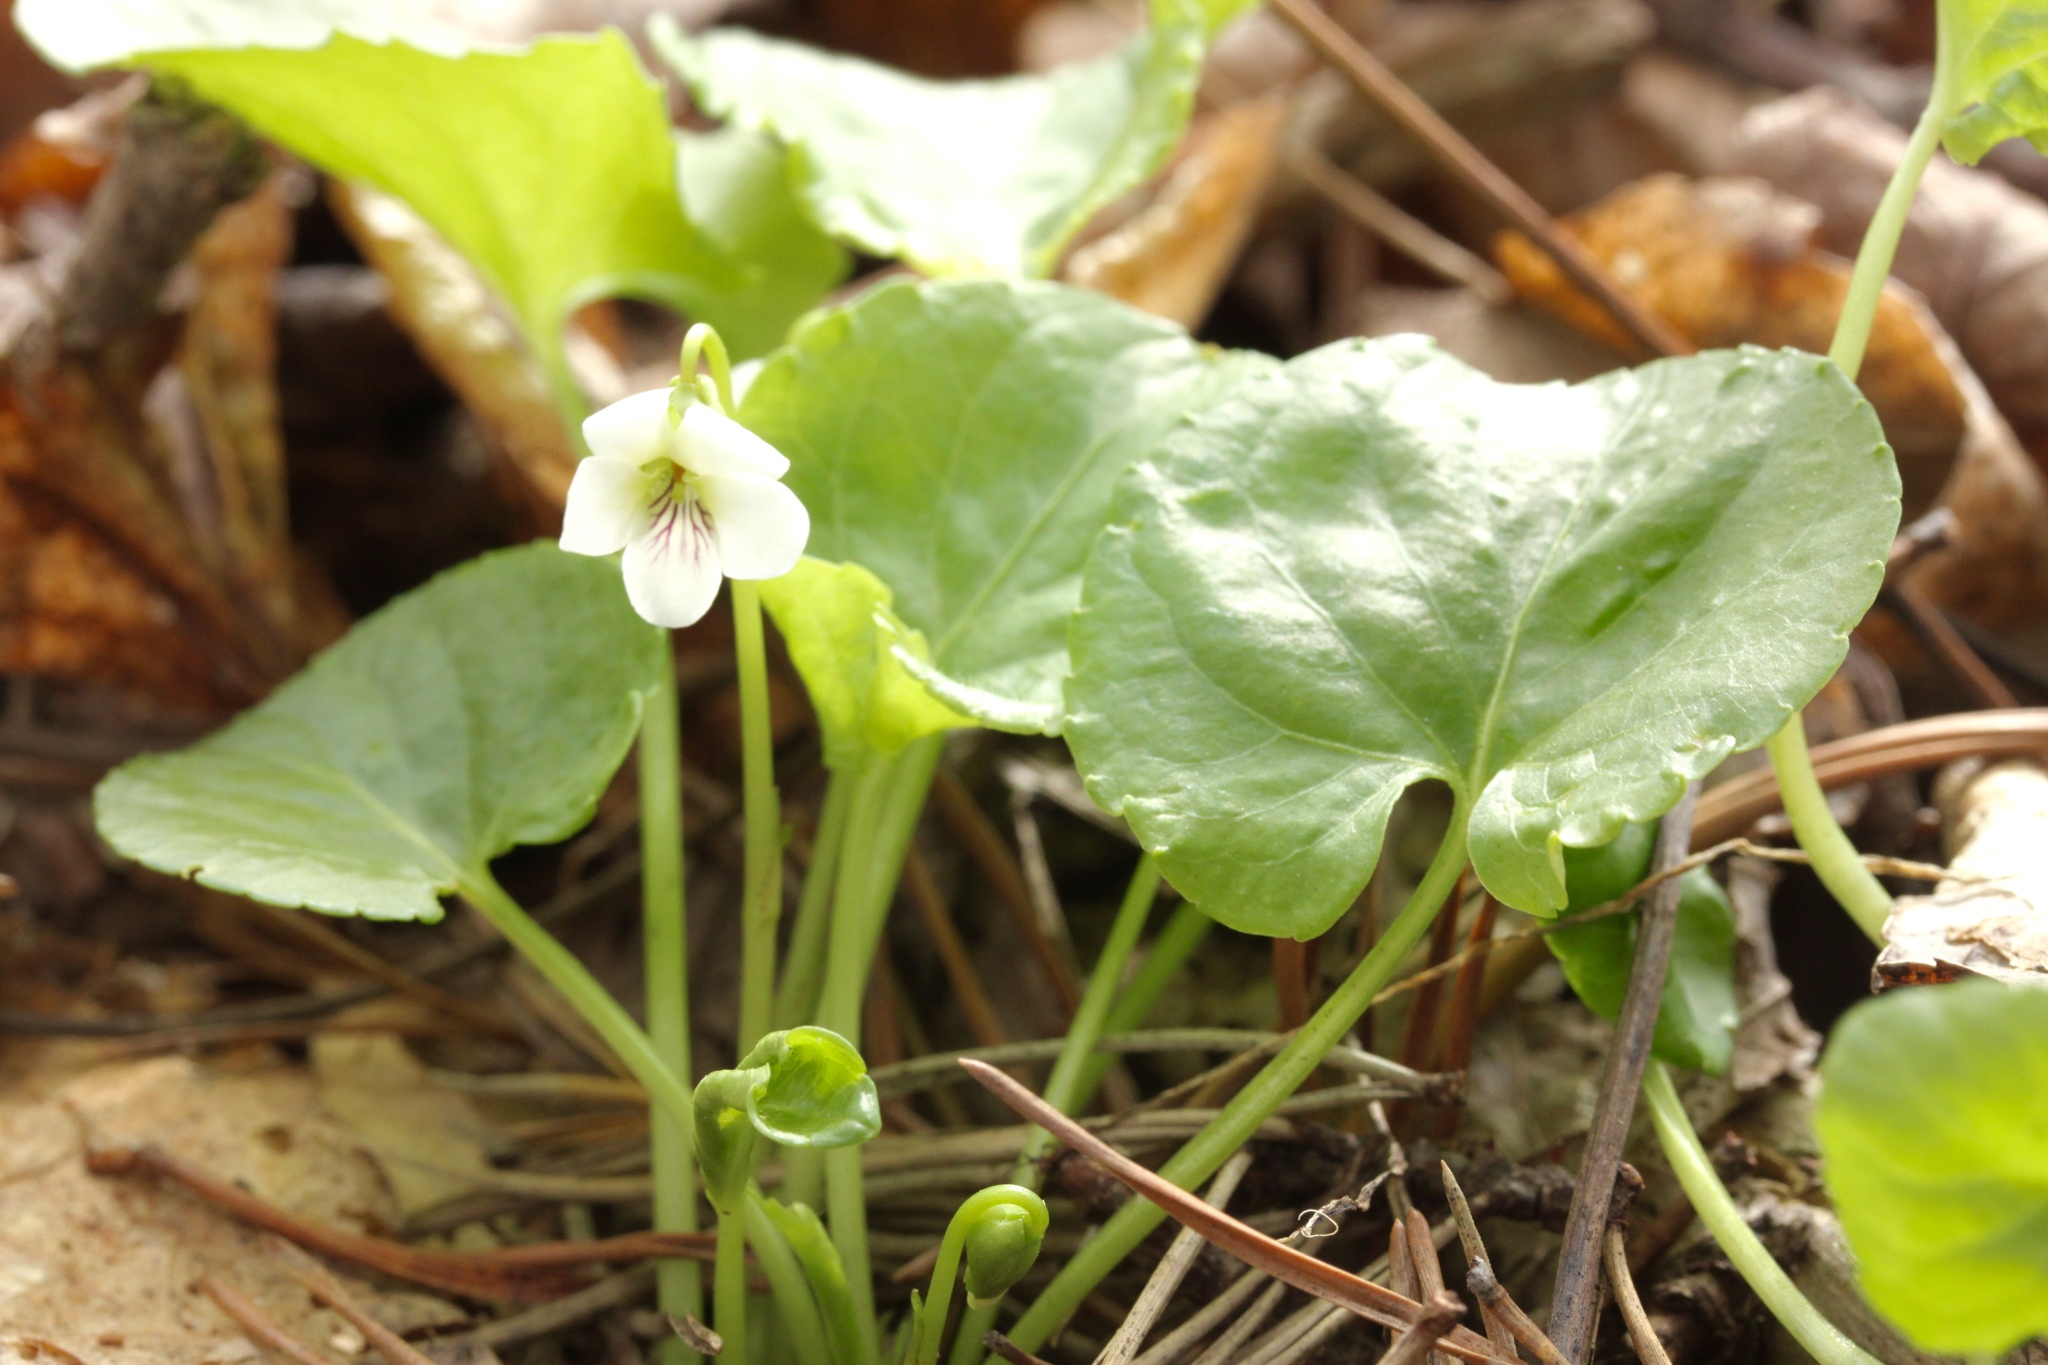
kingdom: Plantae
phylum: Tracheophyta
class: Magnoliopsida
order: Malpighiales
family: Violaceae
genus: Viola
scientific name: Viola renifolia
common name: Kidney-leaf violet
